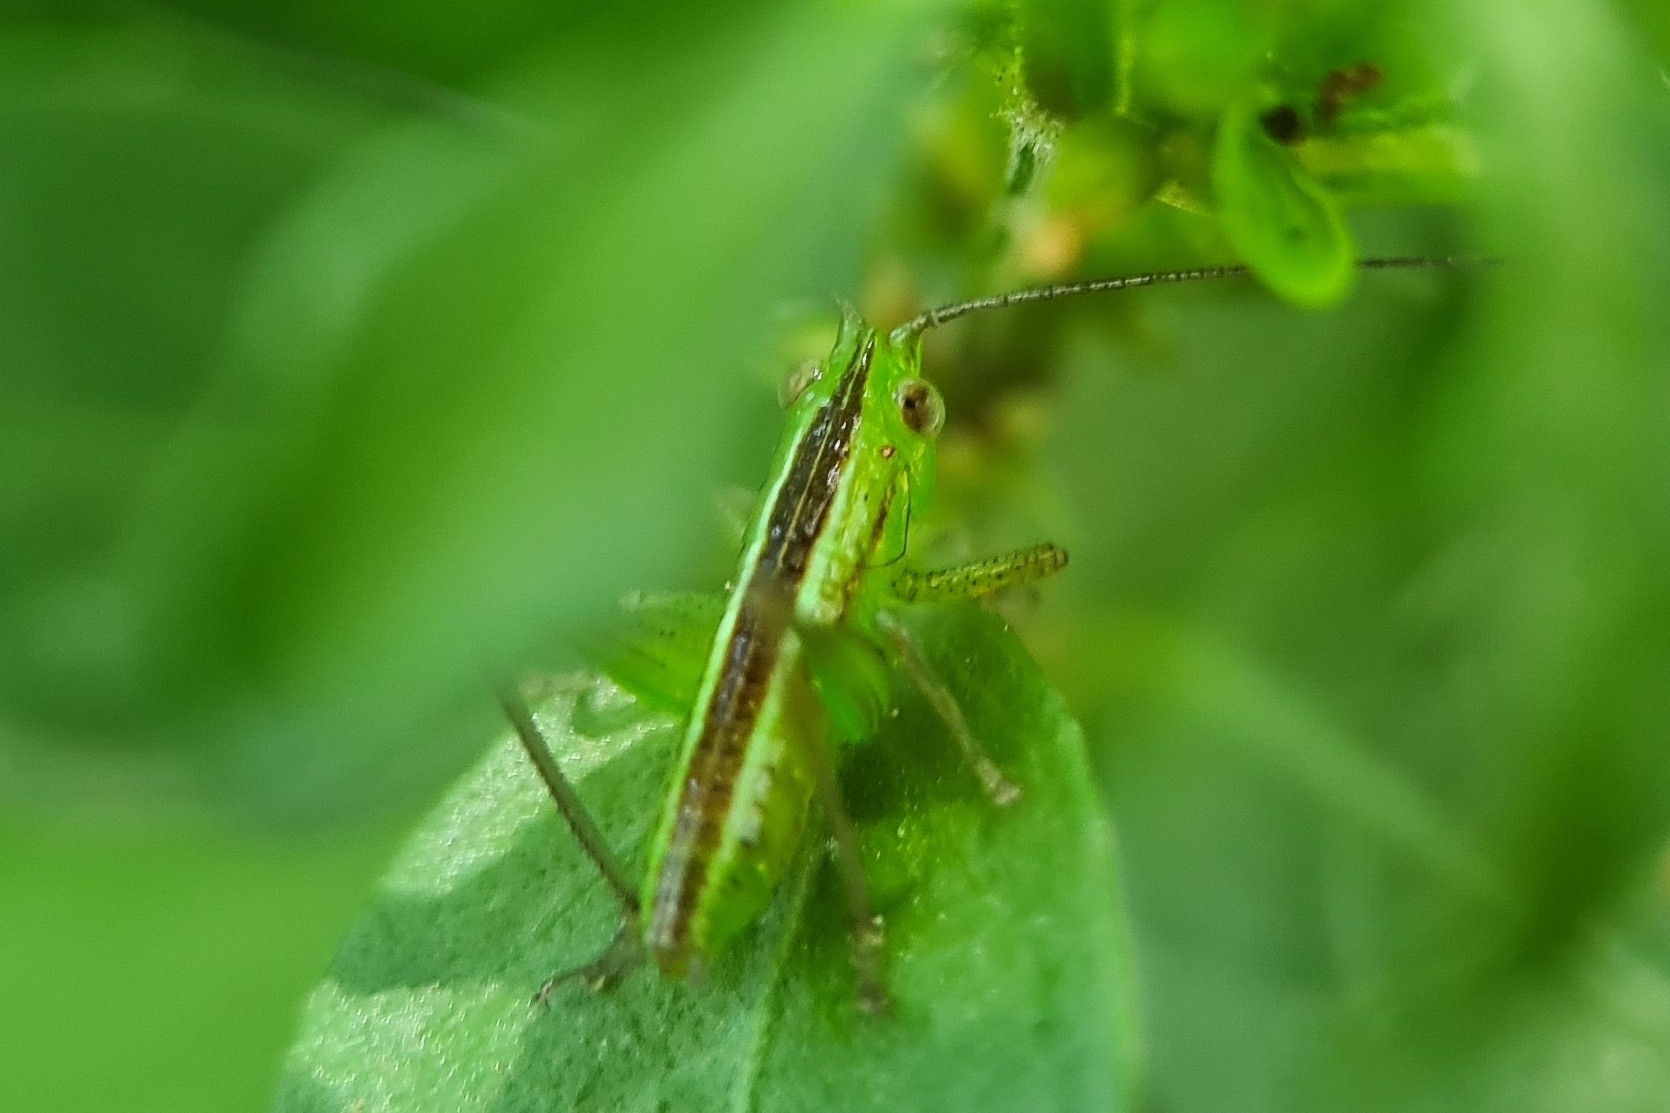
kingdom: Animalia
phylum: Arthropoda
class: Insecta
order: Orthoptera
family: Tettigoniidae
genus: Conocephalus
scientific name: Conocephalus semivittatus
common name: Blackish meadow katydid
